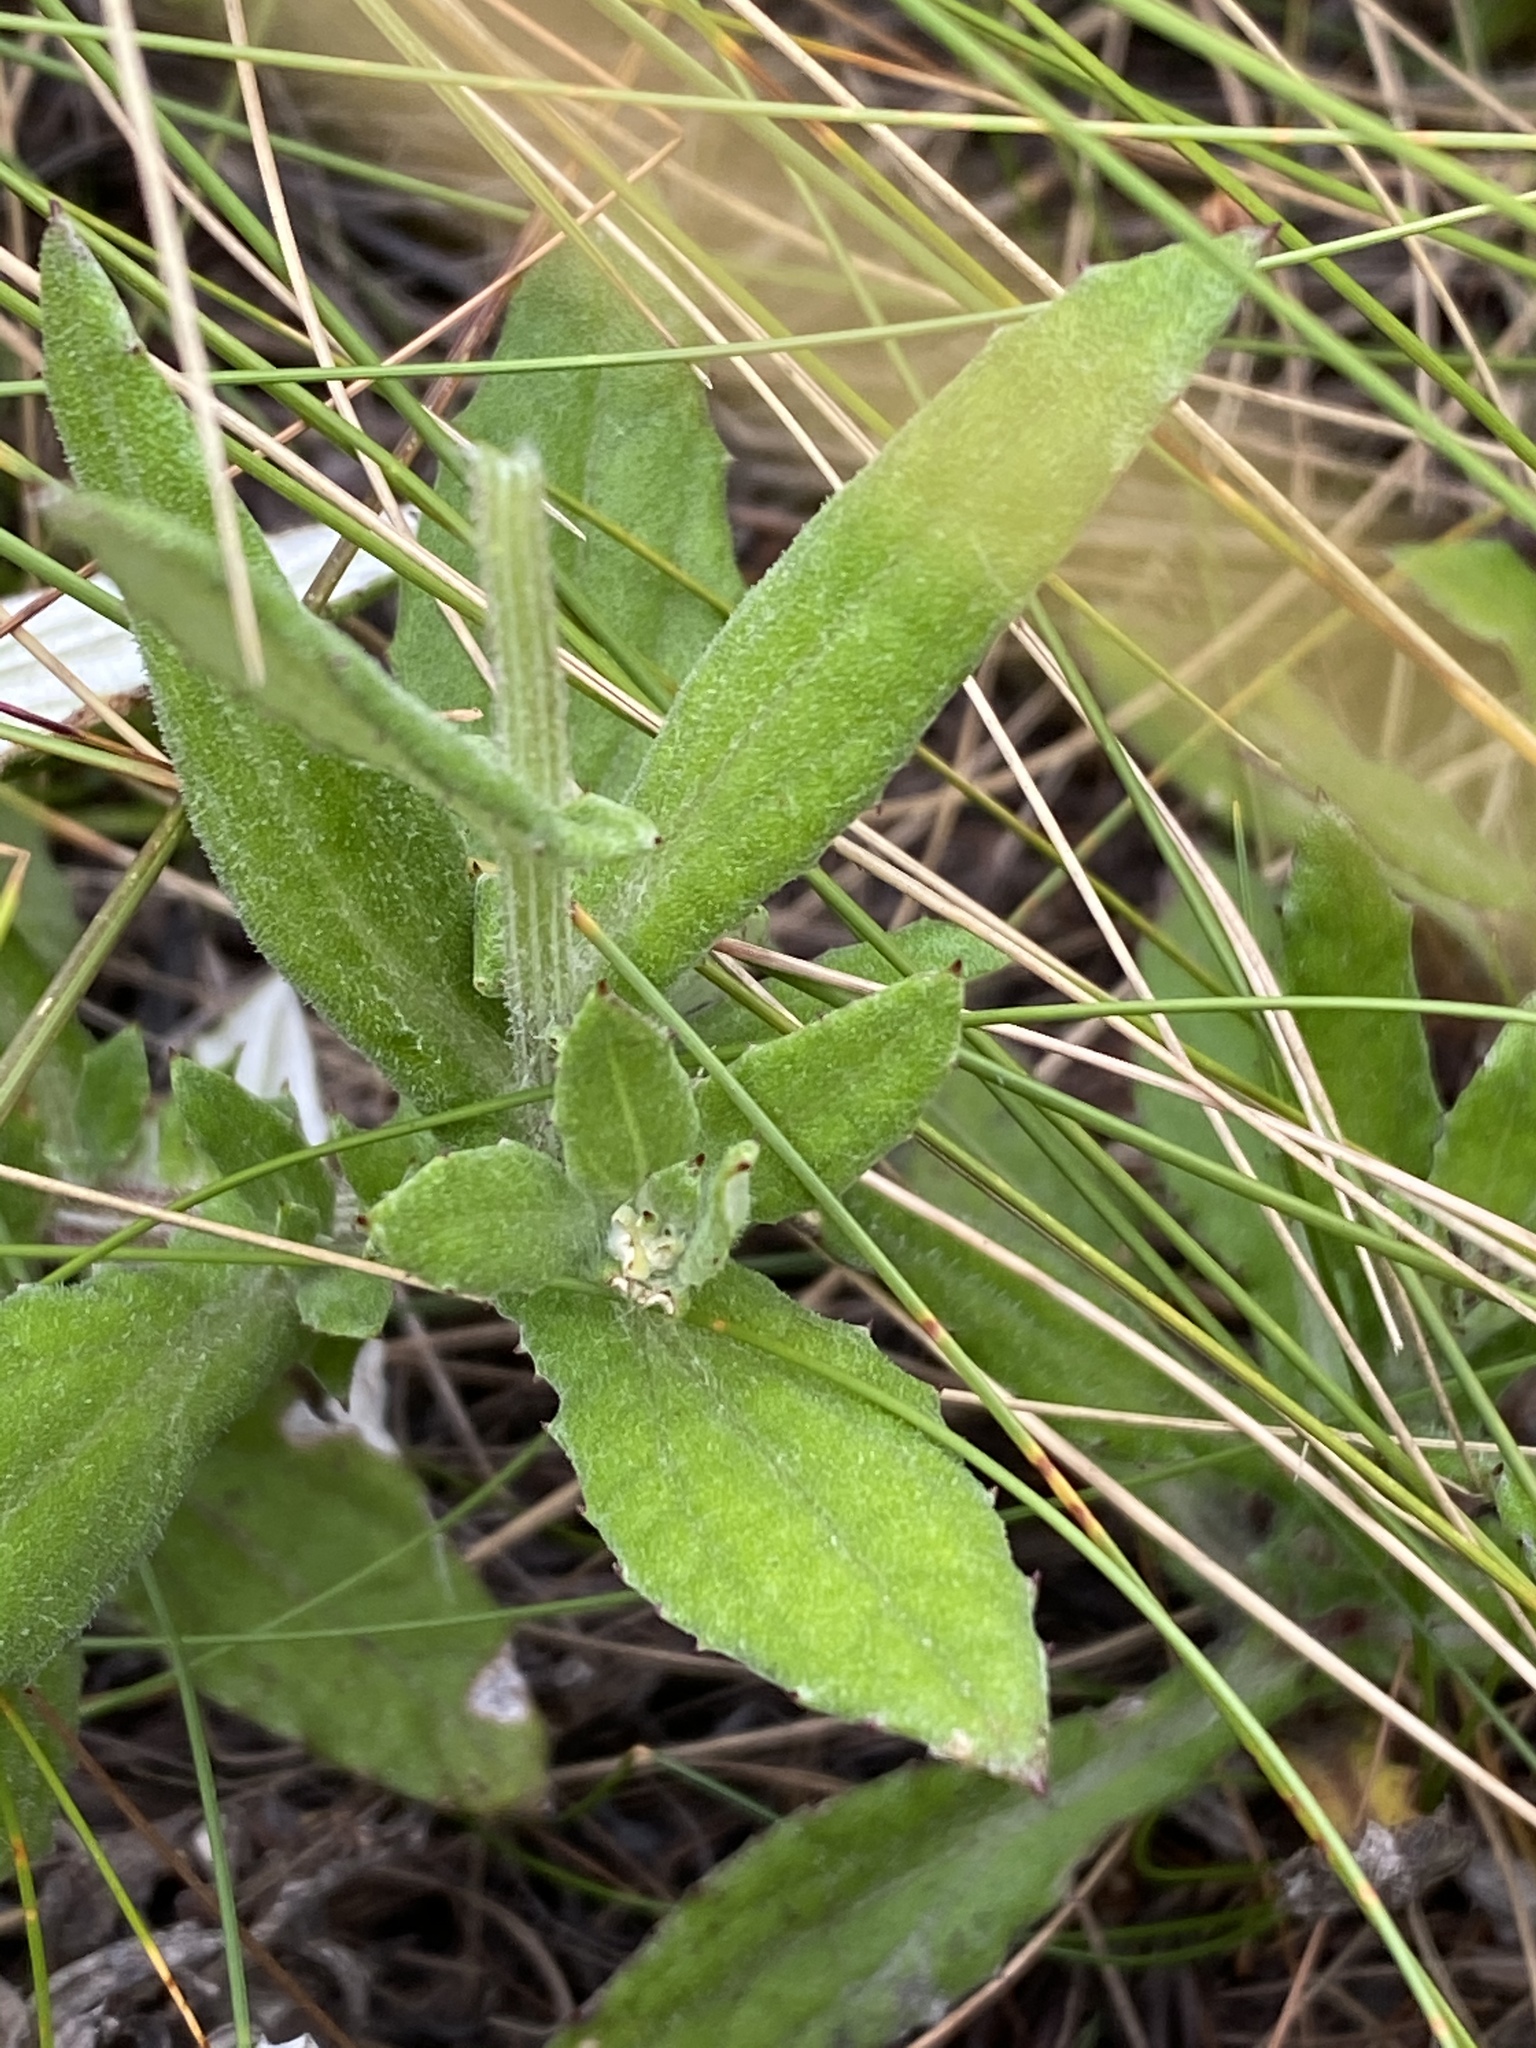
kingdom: Plantae
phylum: Tracheophyta
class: Magnoliopsida
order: Asterales
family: Asteraceae
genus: Arctotis
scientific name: Arctotis scabra
